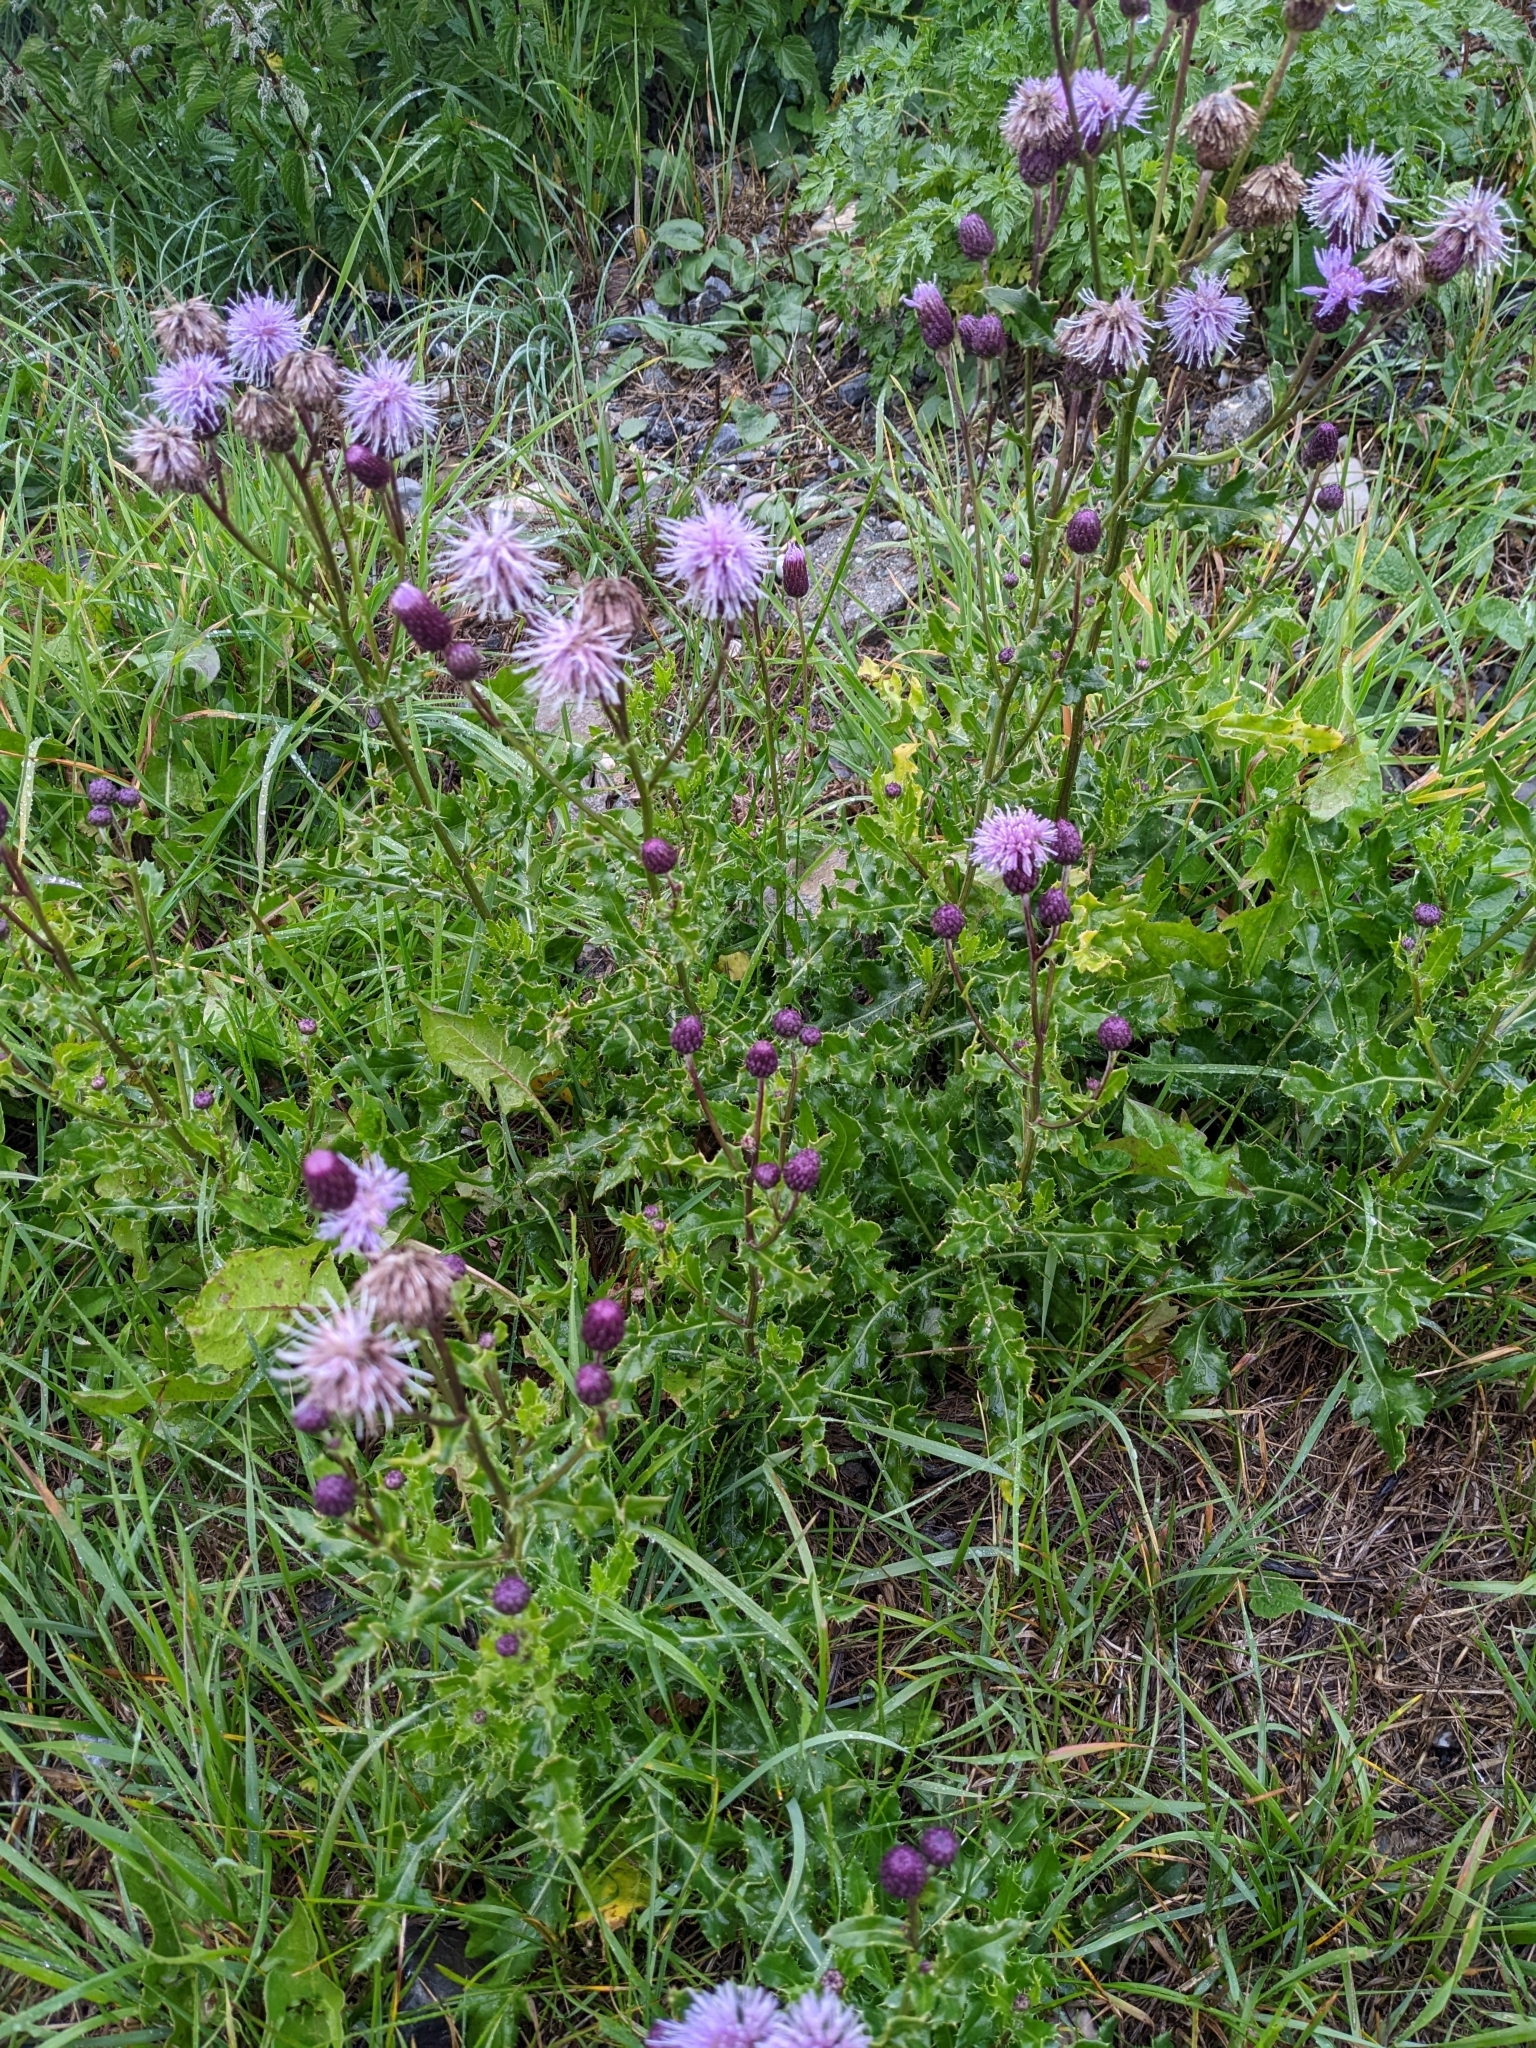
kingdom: Plantae
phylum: Tracheophyta
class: Magnoliopsida
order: Asterales
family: Asteraceae
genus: Cirsium
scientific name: Cirsium arvense
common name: Creeping thistle
